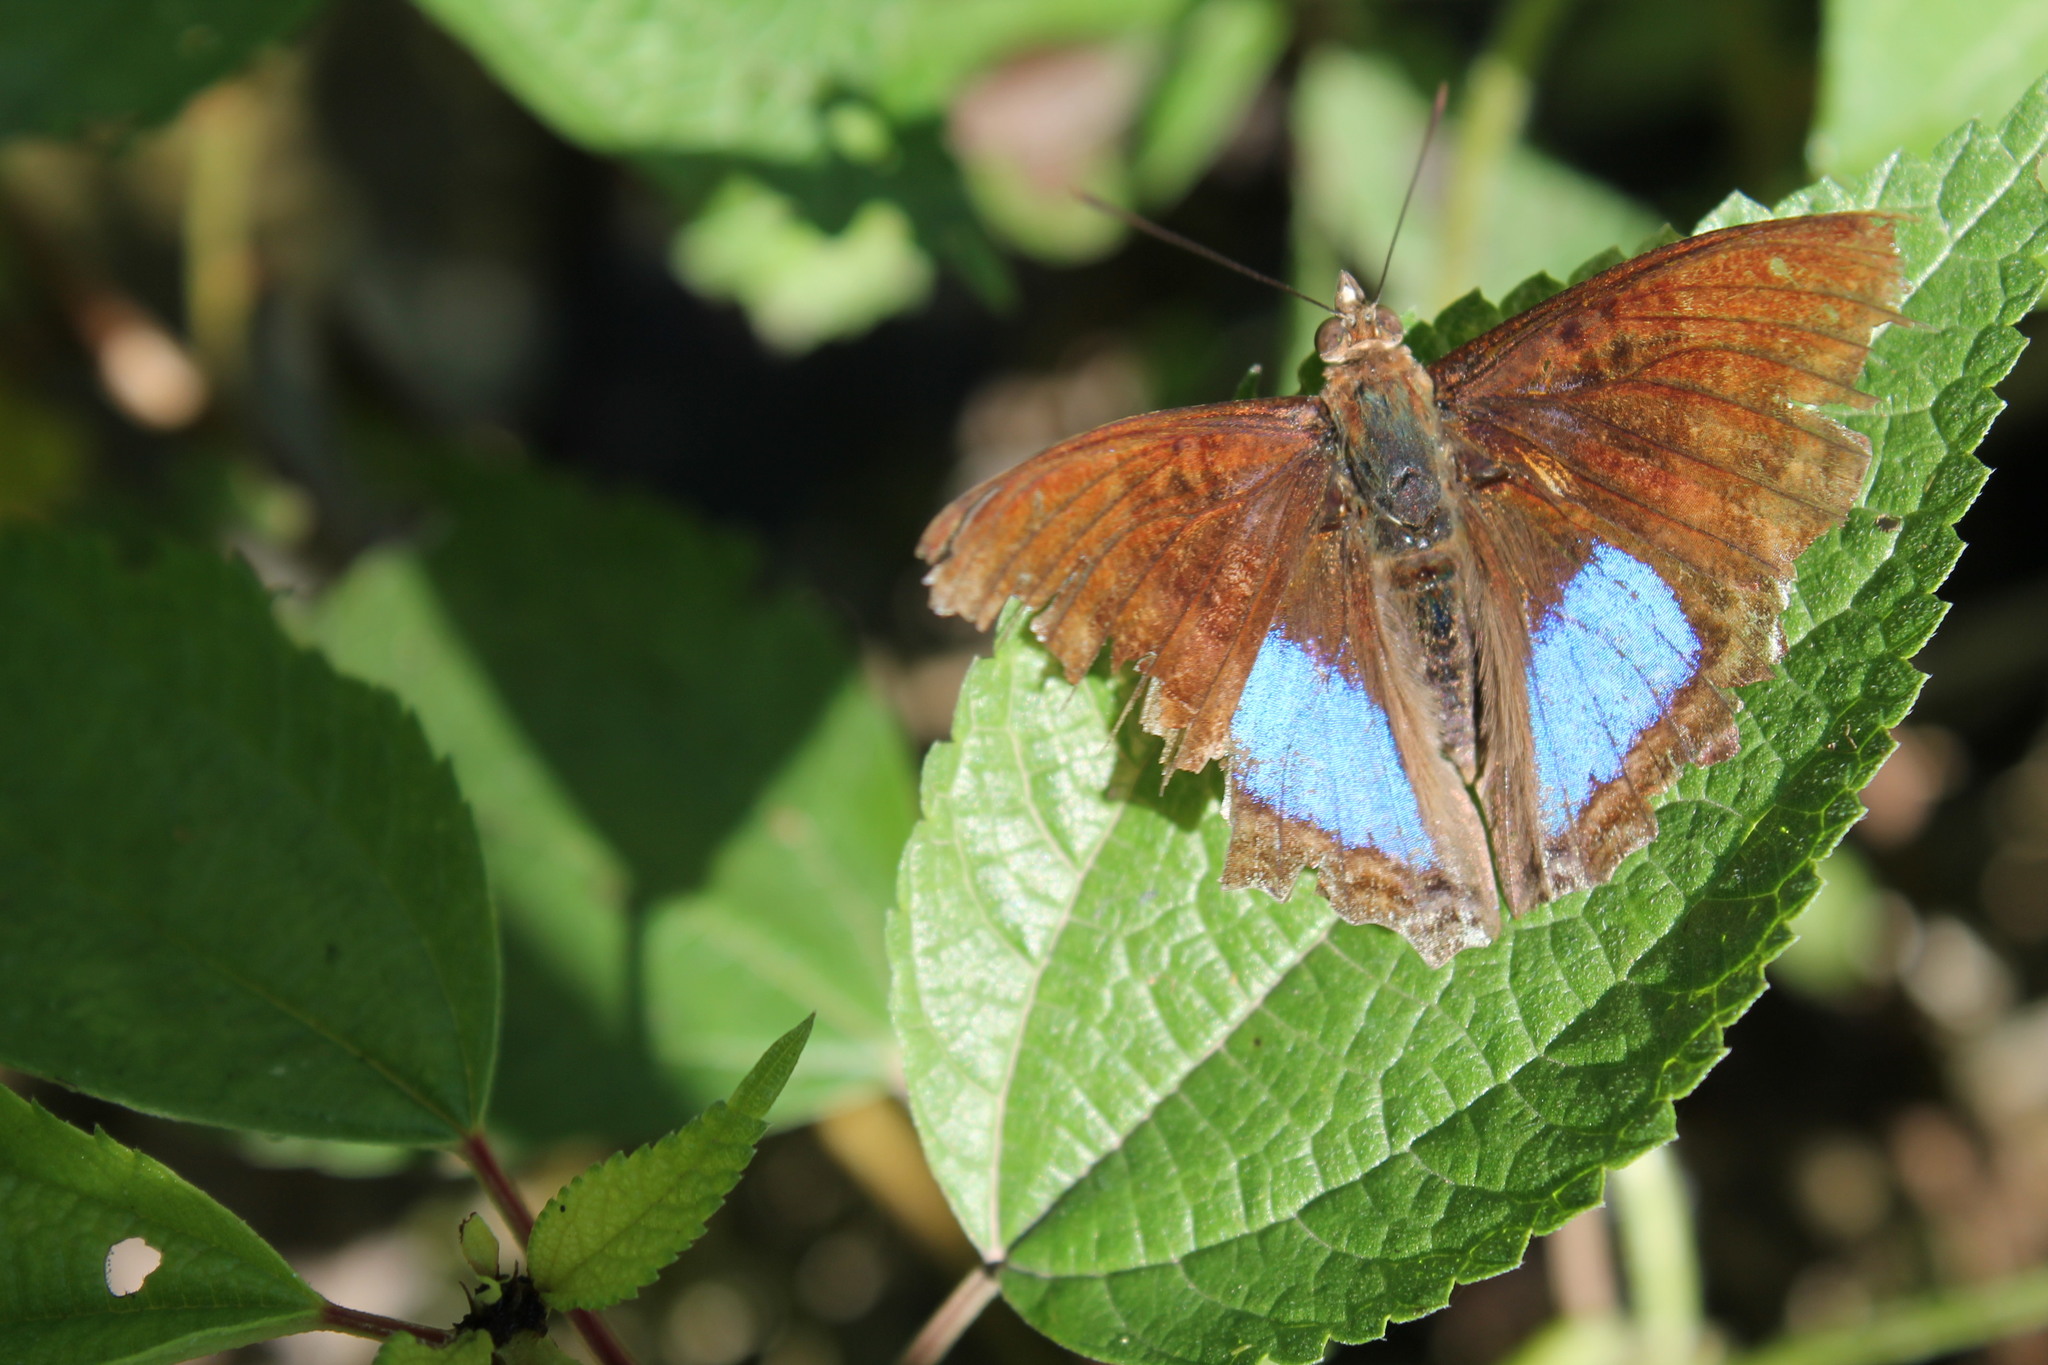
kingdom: Animalia
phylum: Arthropoda
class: Insecta
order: Lepidoptera
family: Nymphalidae
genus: Doxocopa
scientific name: Doxocopa cyane
